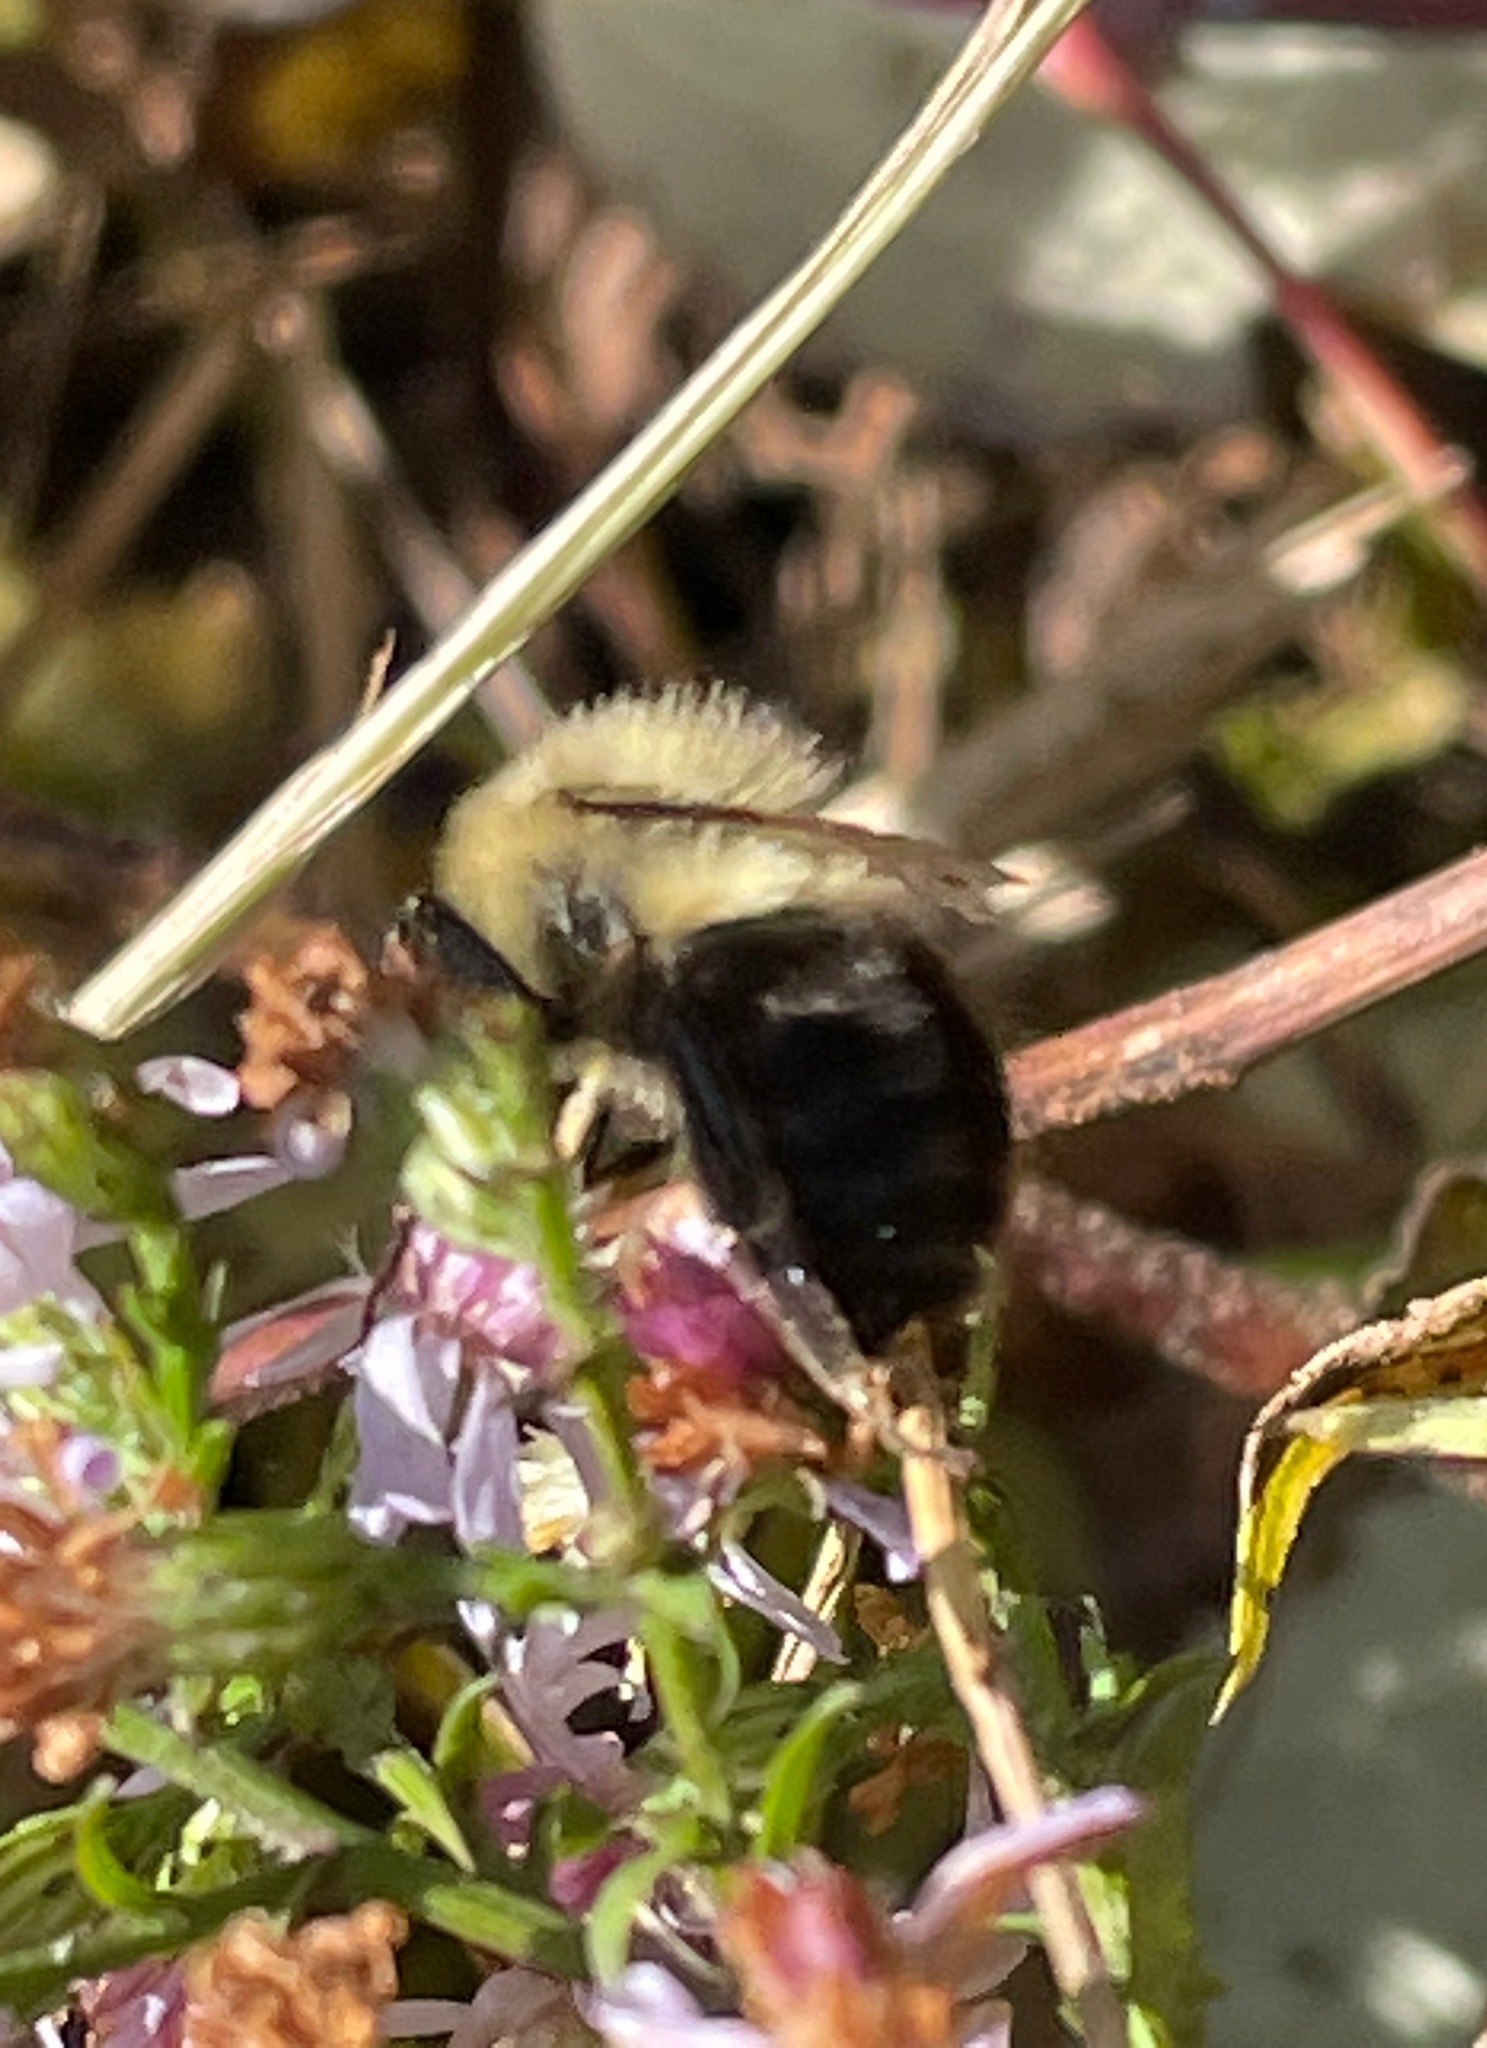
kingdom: Animalia
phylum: Arthropoda
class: Insecta
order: Hymenoptera
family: Apidae
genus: Bombus
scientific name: Bombus impatiens
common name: Common eastern bumble bee
